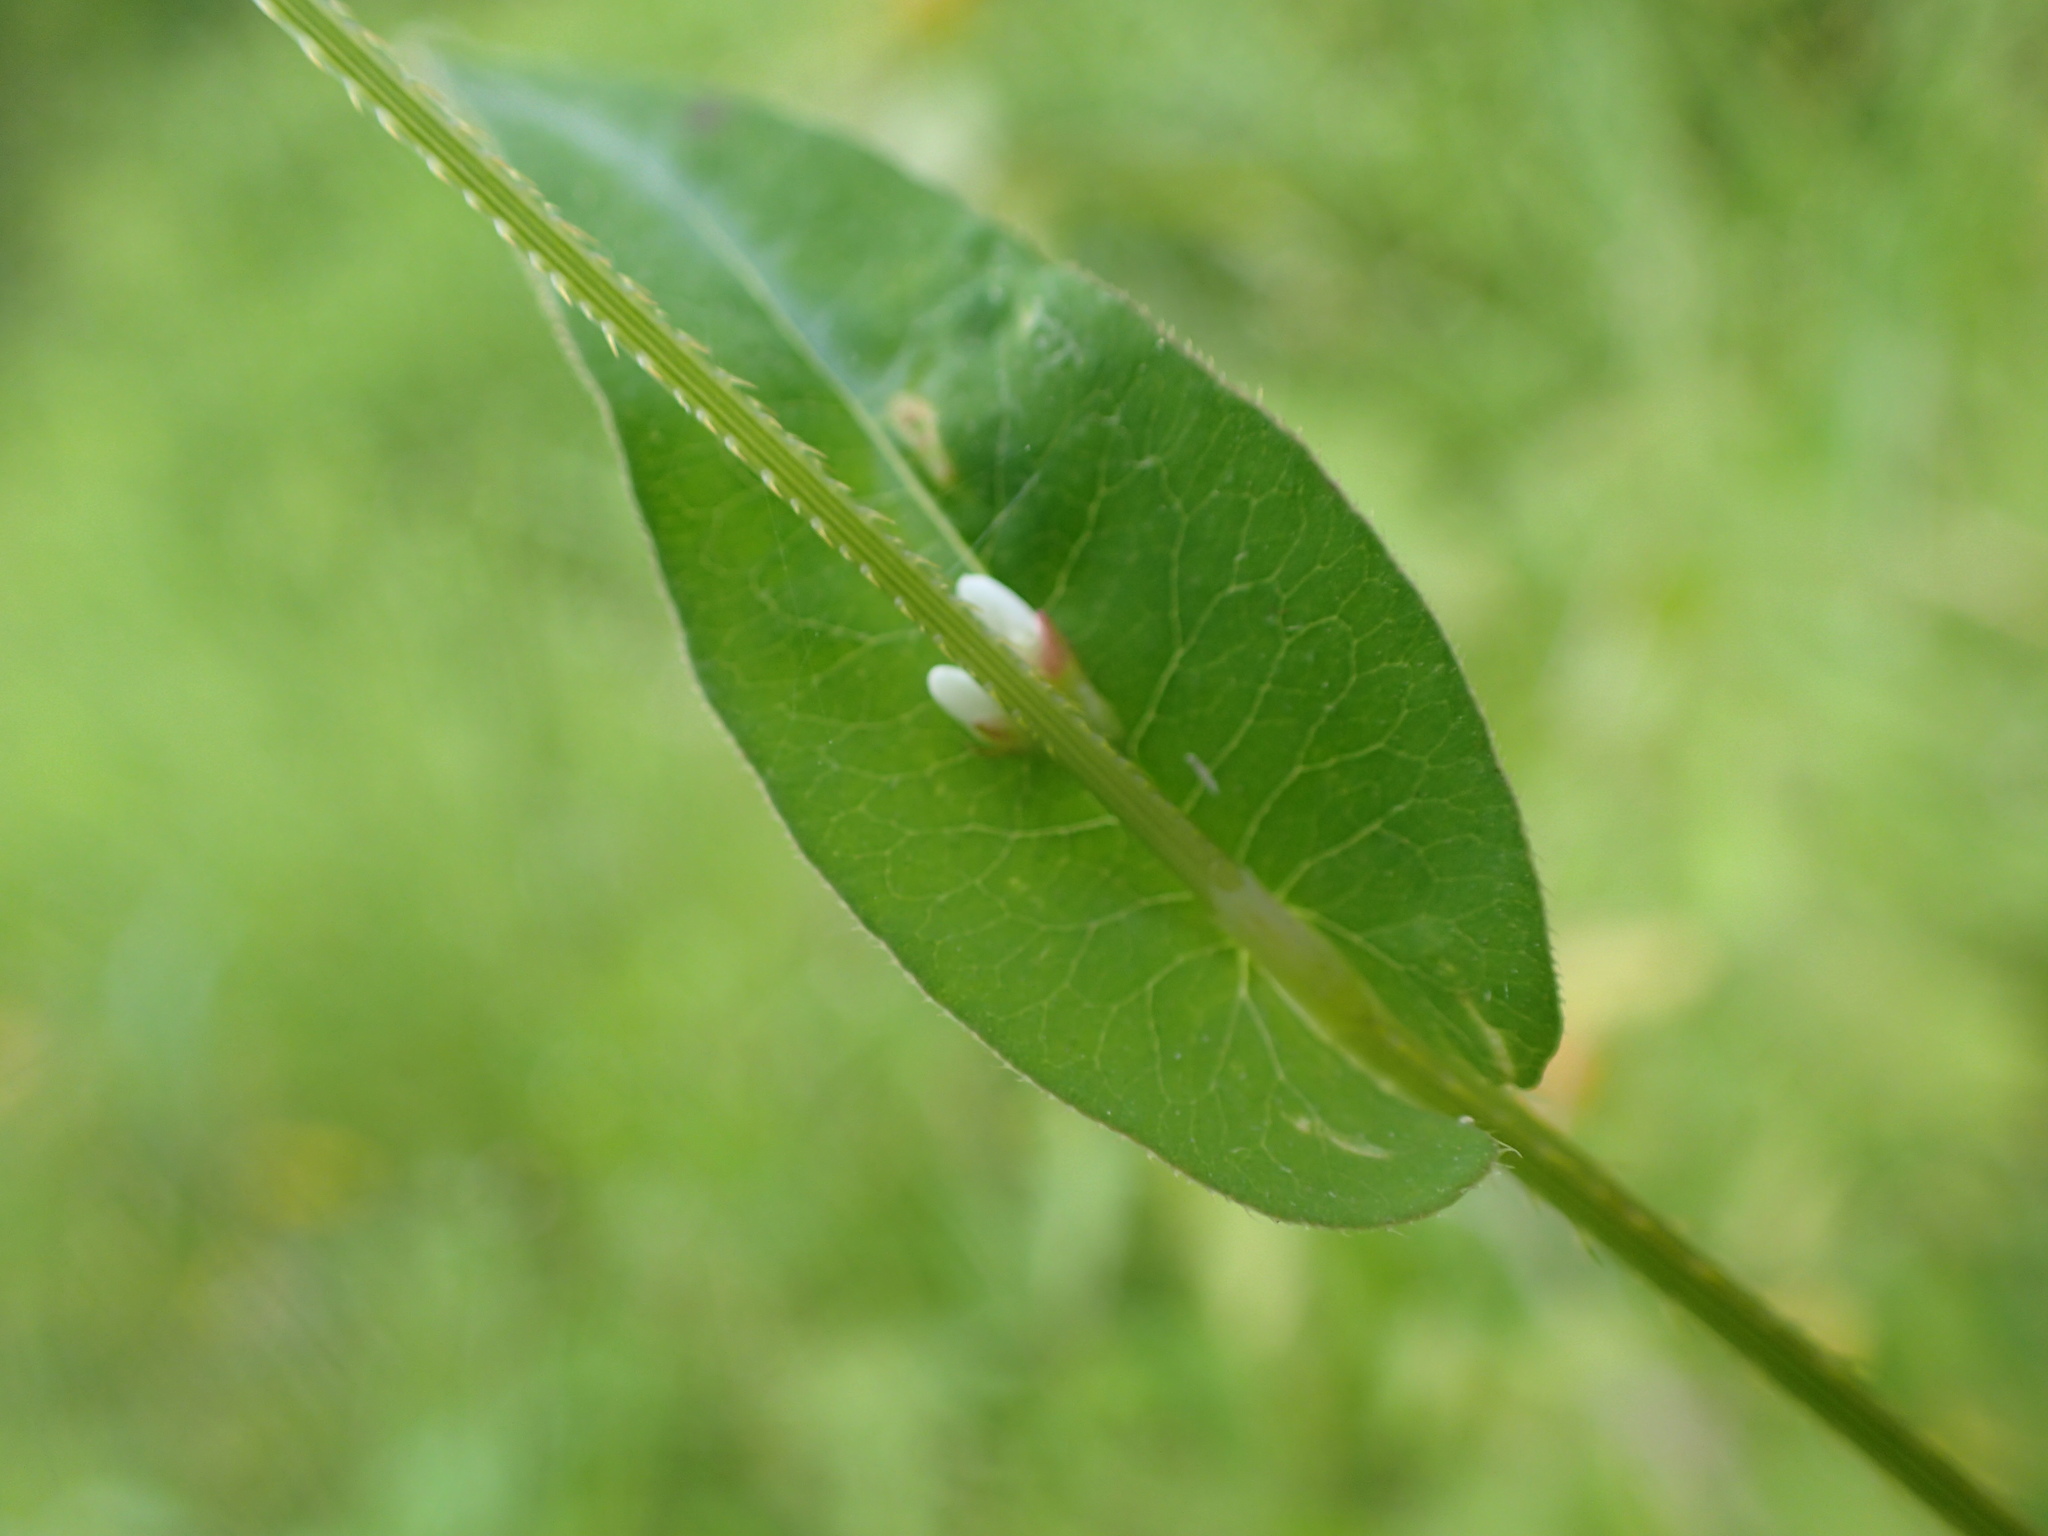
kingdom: Plantae
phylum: Tracheophyta
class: Magnoliopsida
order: Caryophyllales
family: Polygonaceae
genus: Persicaria
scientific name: Persicaria sagittata
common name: American tearthumb
